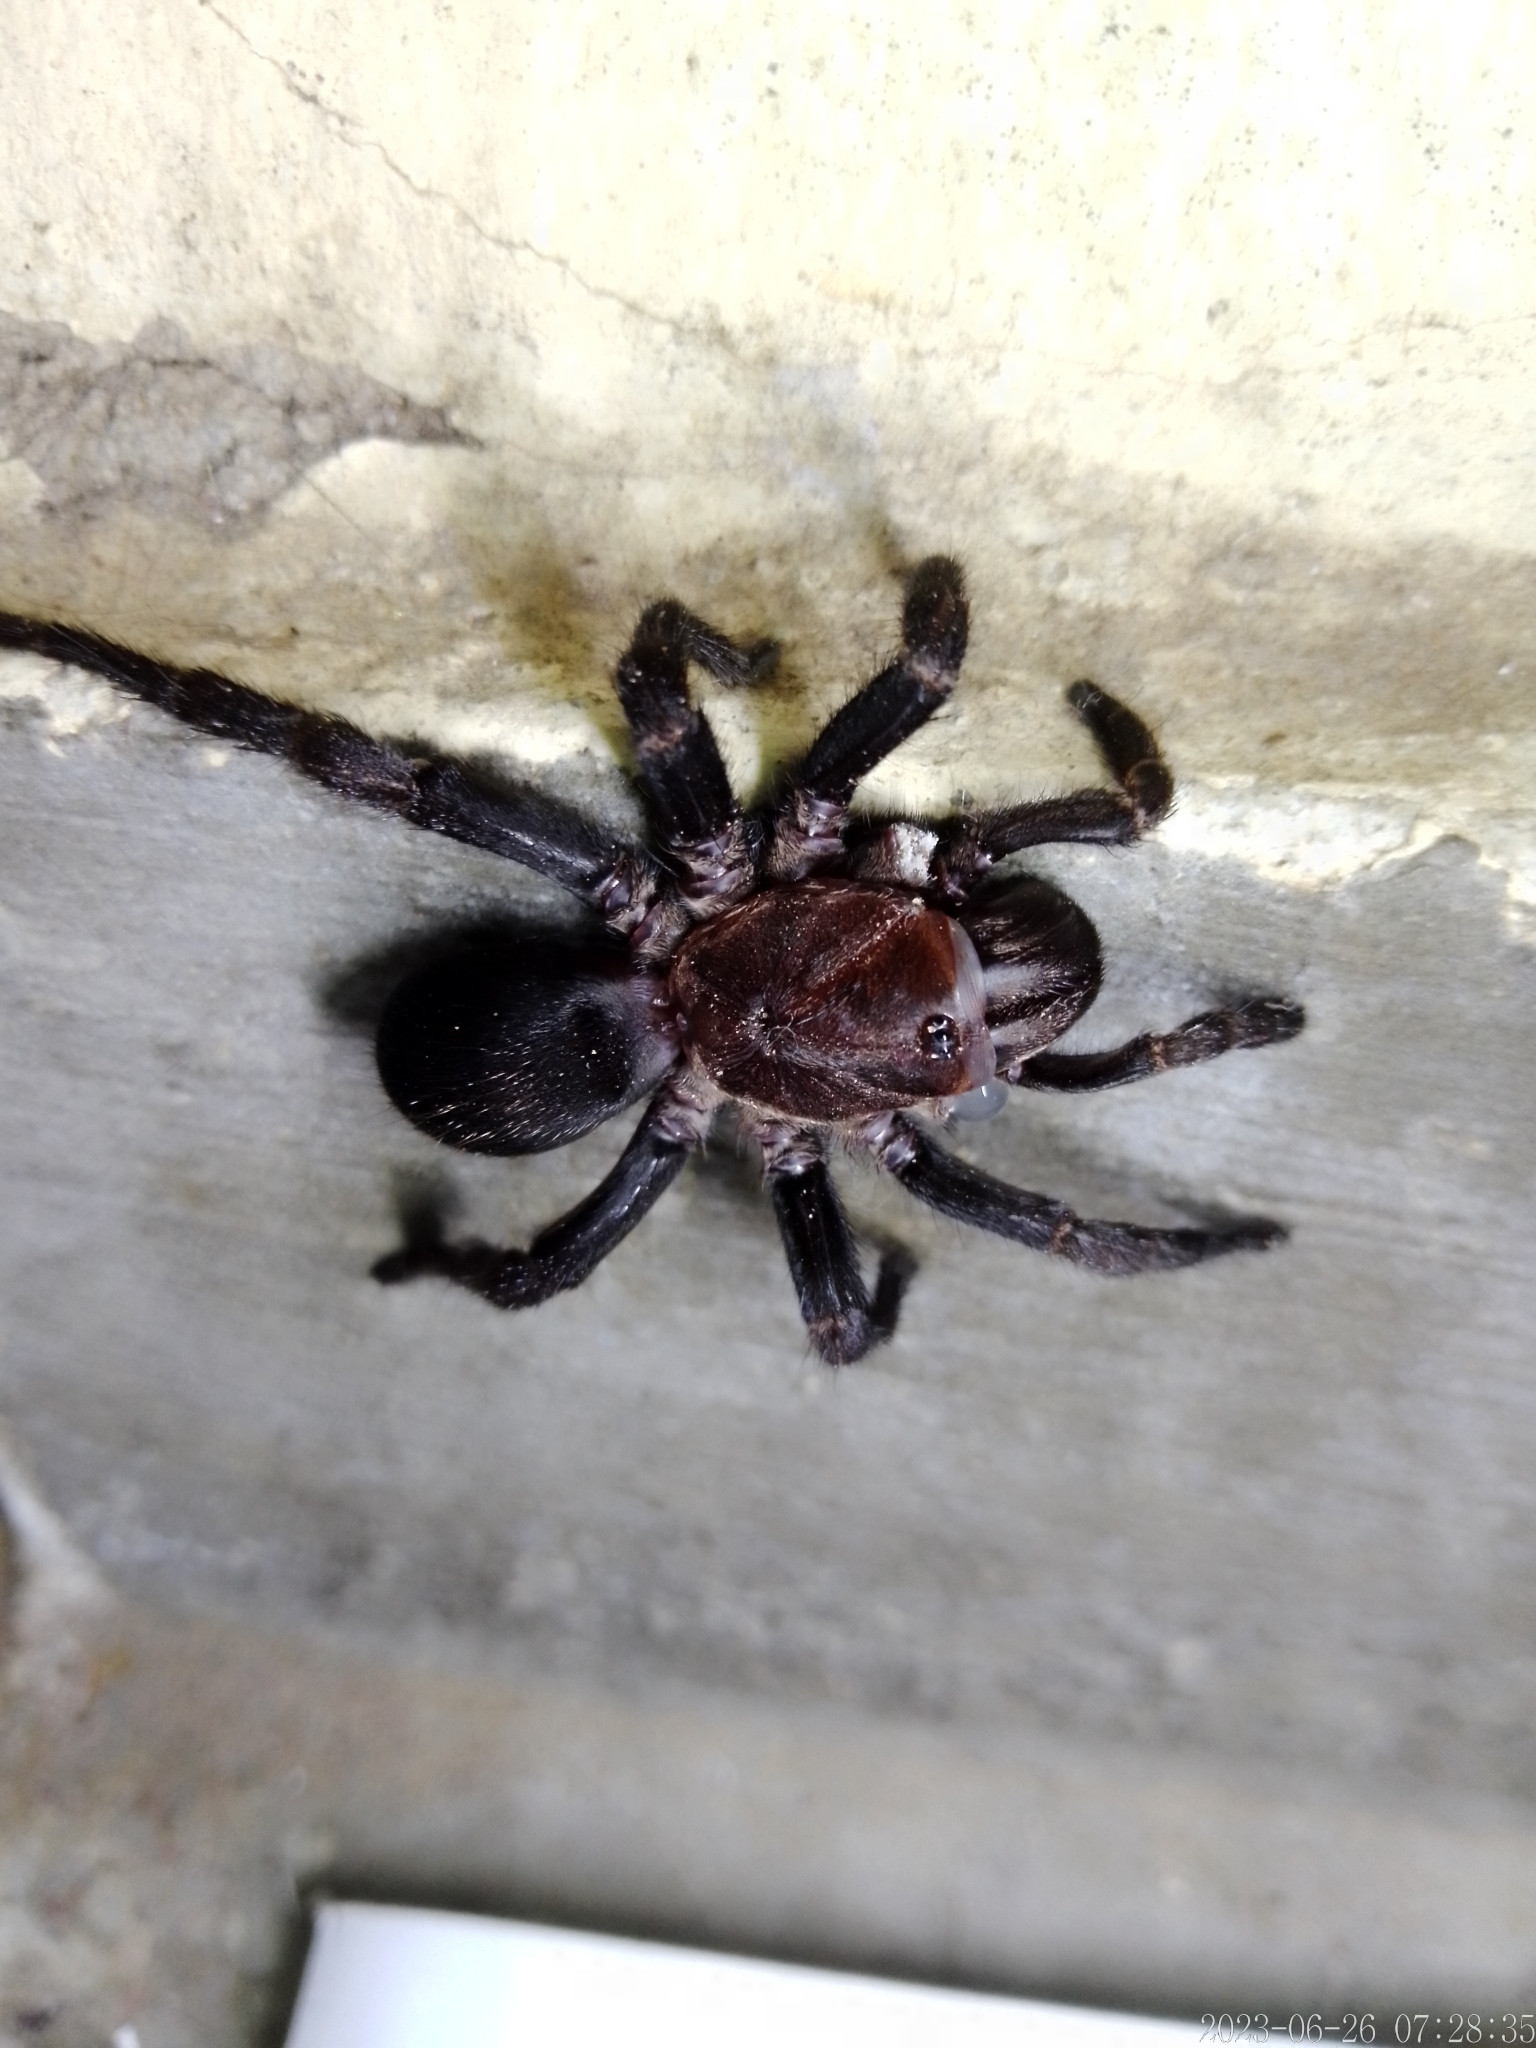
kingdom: Animalia
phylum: Arthropoda
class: Arachnida
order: Araneae
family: Pycnothelidae
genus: Acanthogonatus
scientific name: Acanthogonatus tacuariensis
